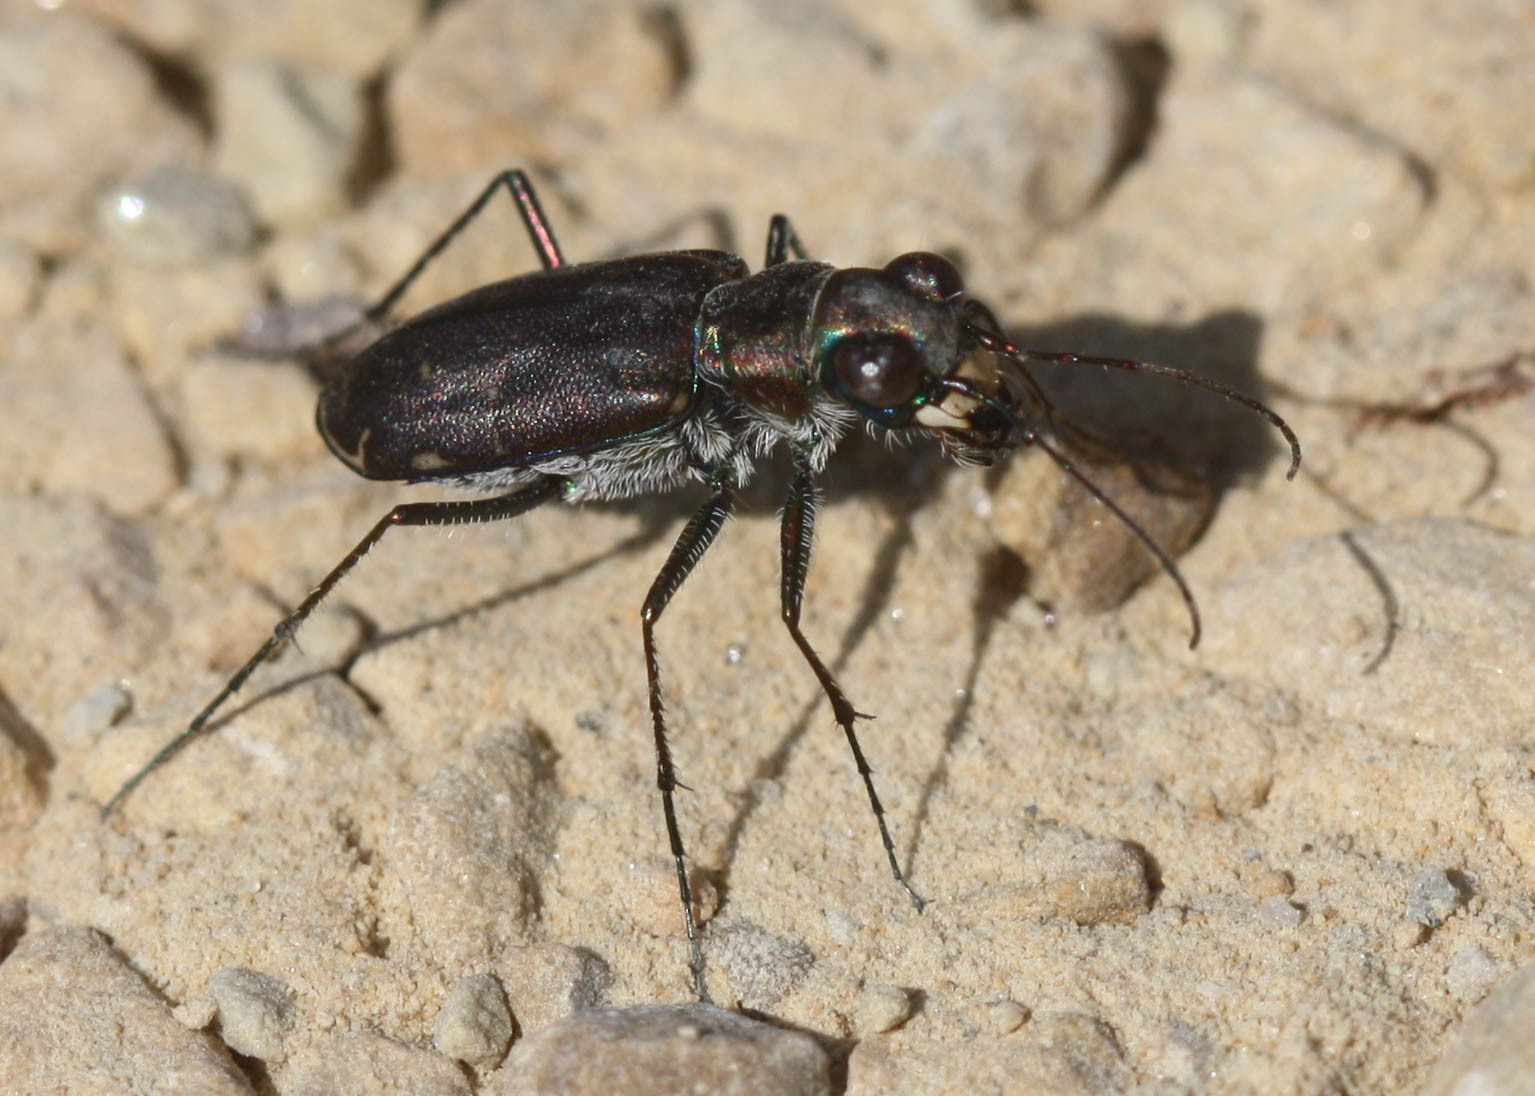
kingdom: Animalia
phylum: Arthropoda
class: Insecta
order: Coleoptera
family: Carabidae
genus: Cicindela
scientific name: Cicindela punctulata
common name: Punctured tiger beetle
